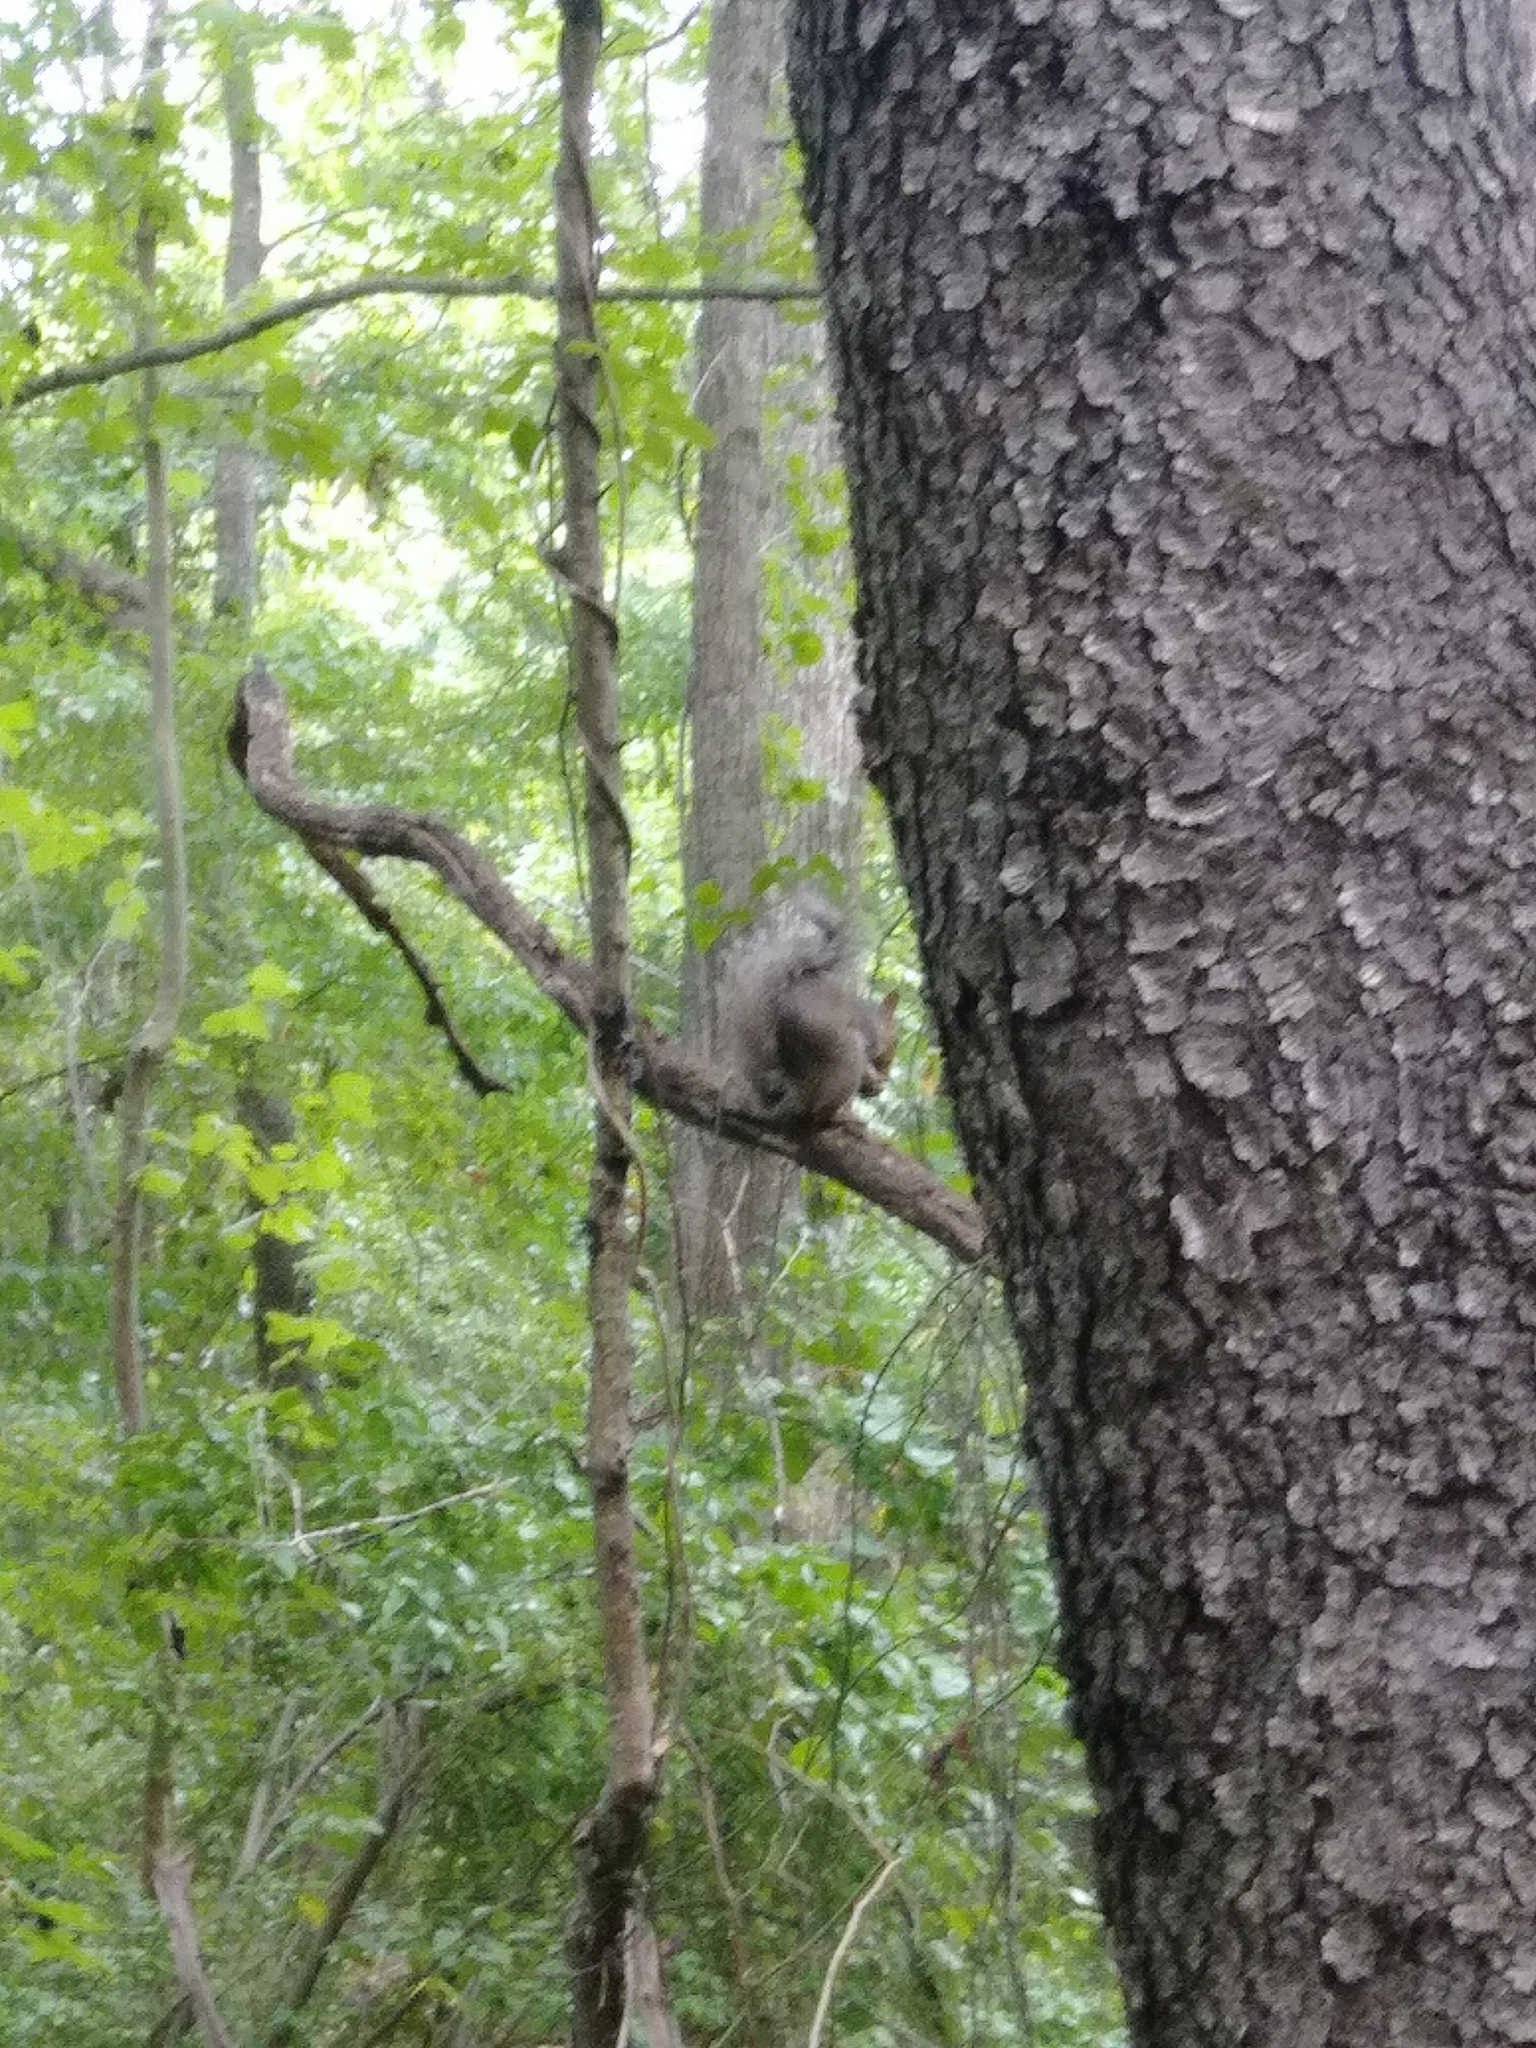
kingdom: Animalia
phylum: Chordata
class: Mammalia
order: Rodentia
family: Sciuridae
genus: Sciurus
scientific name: Sciurus carolinensis
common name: Eastern gray squirrel
